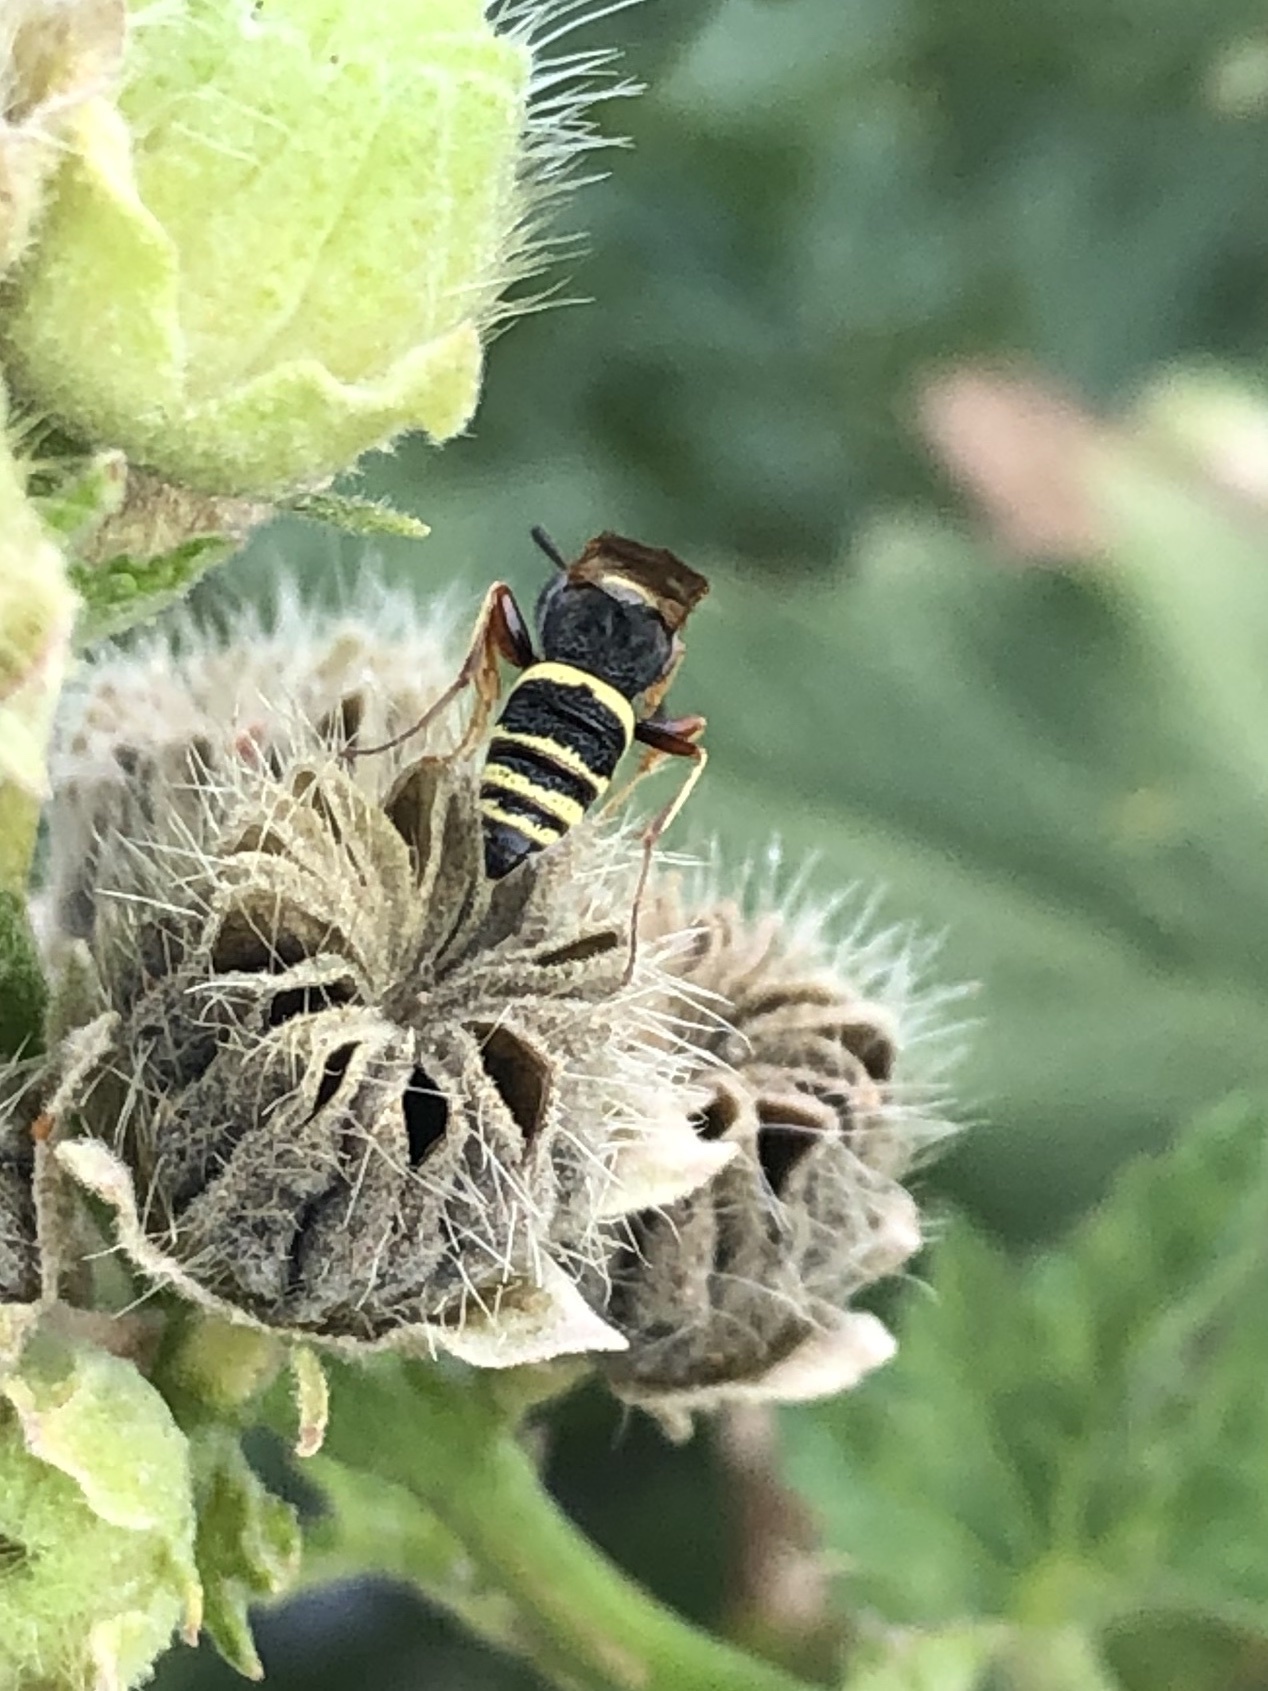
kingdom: Animalia
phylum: Arthropoda
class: Insecta
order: Hymenoptera
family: Crabronidae
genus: Philanthus
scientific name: Philanthus gibbosus
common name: Humped beewolf
